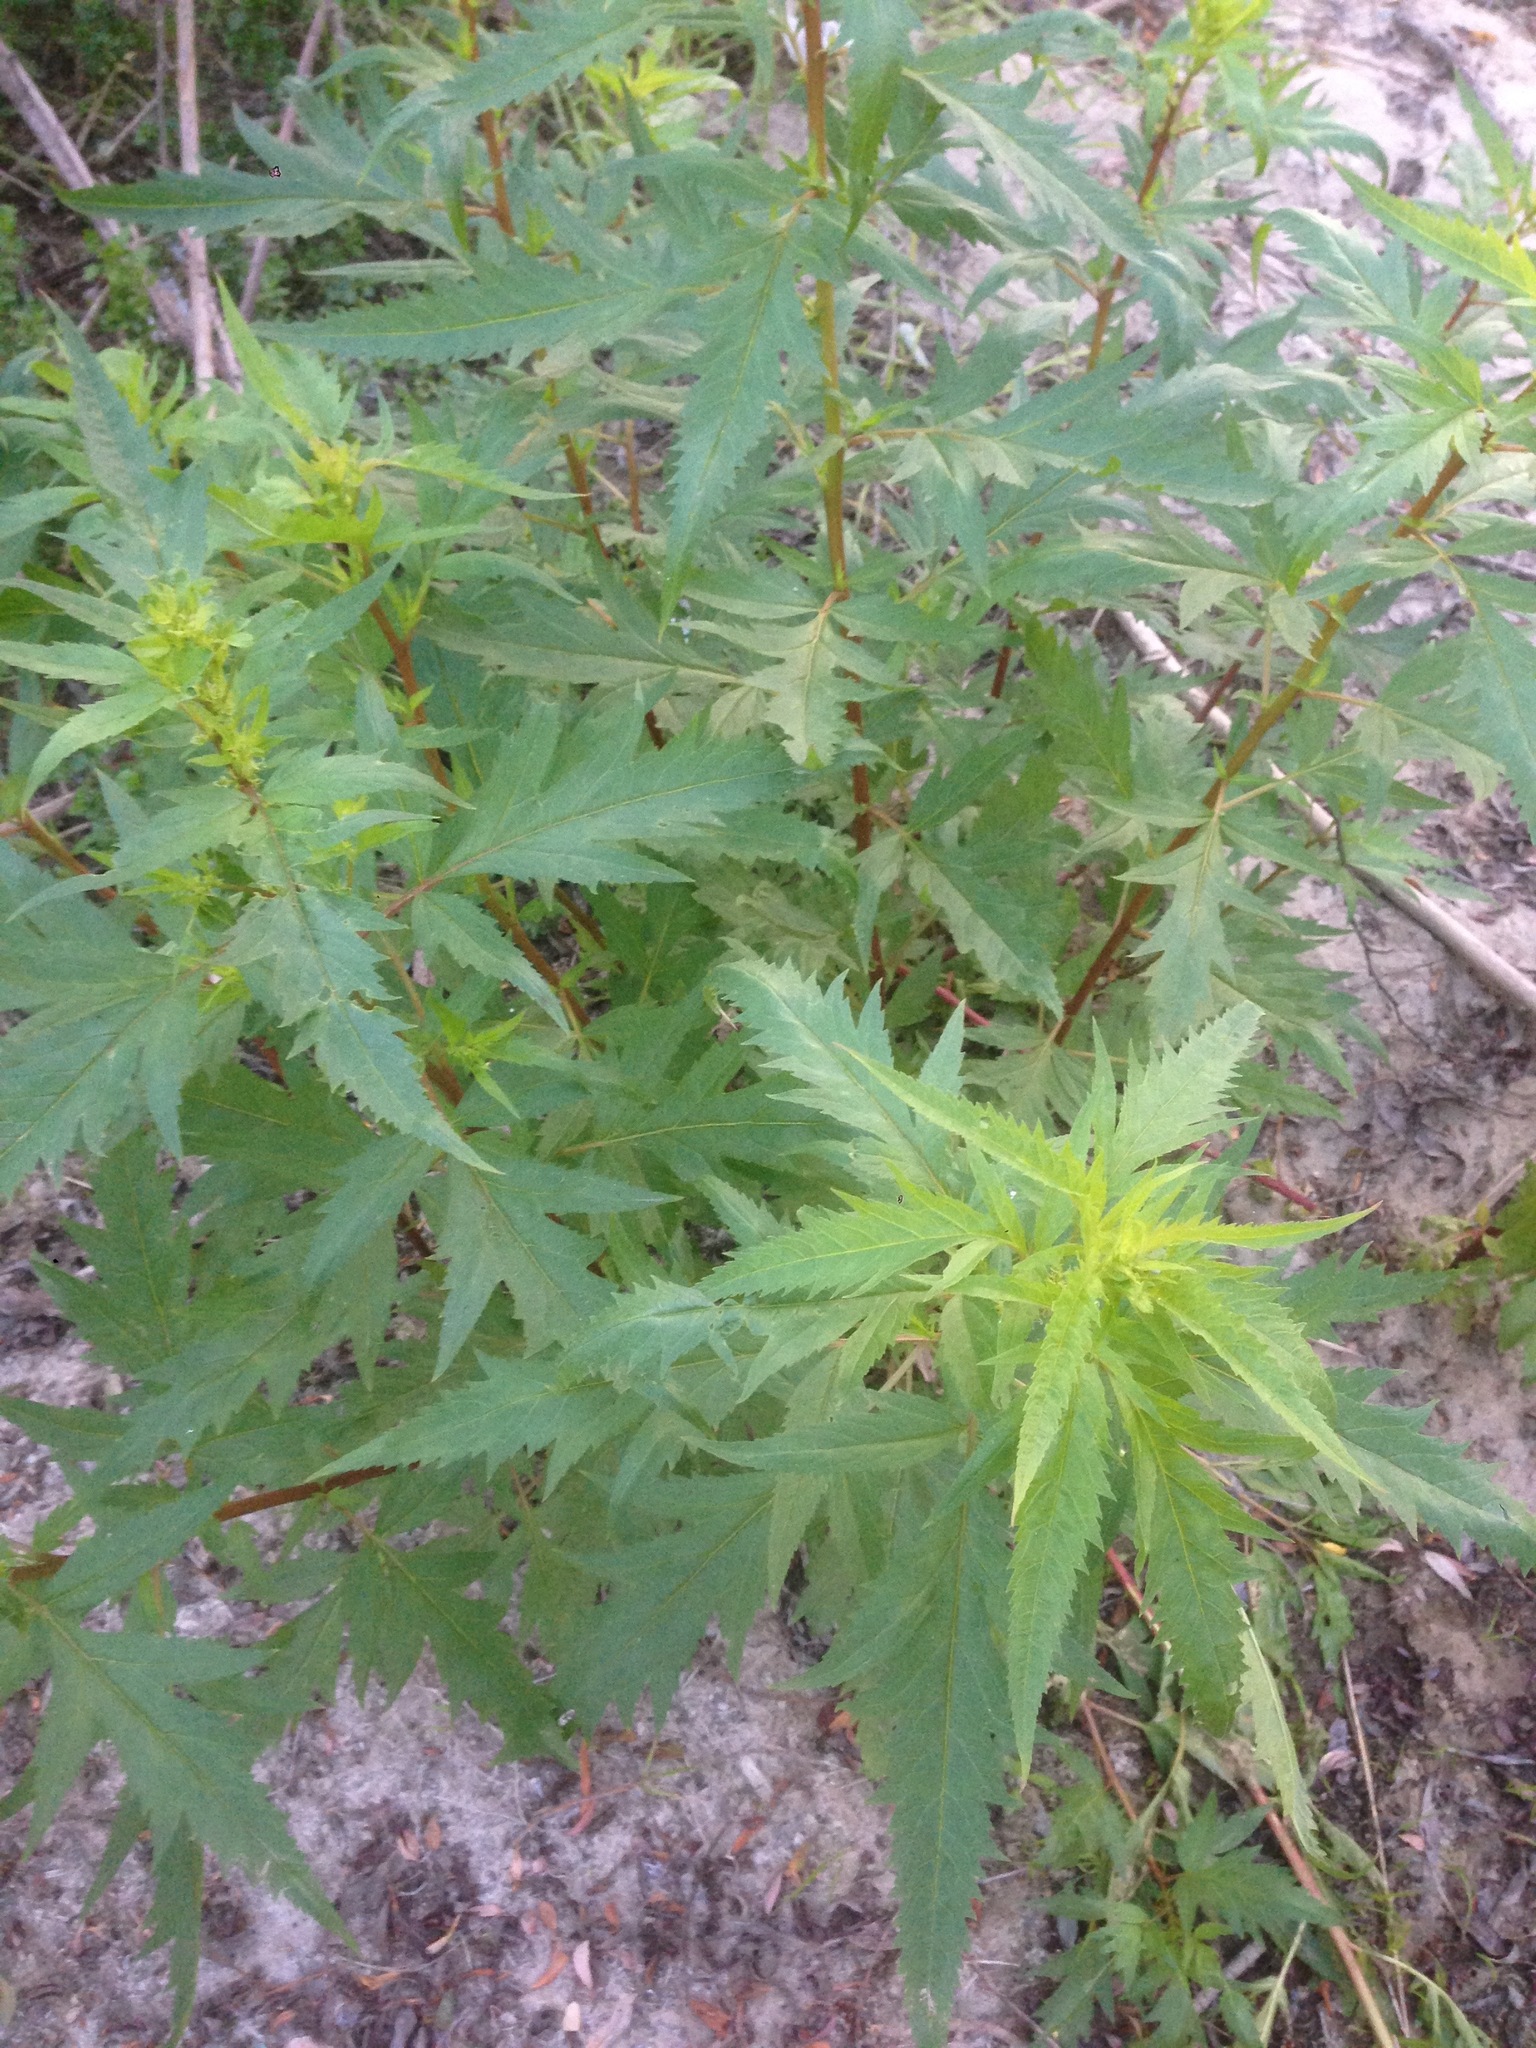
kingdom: Plantae
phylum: Tracheophyta
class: Magnoliopsida
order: Cucurbitales
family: Datiscaceae
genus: Datisca
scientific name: Datisca glomerata
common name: Durango-root
